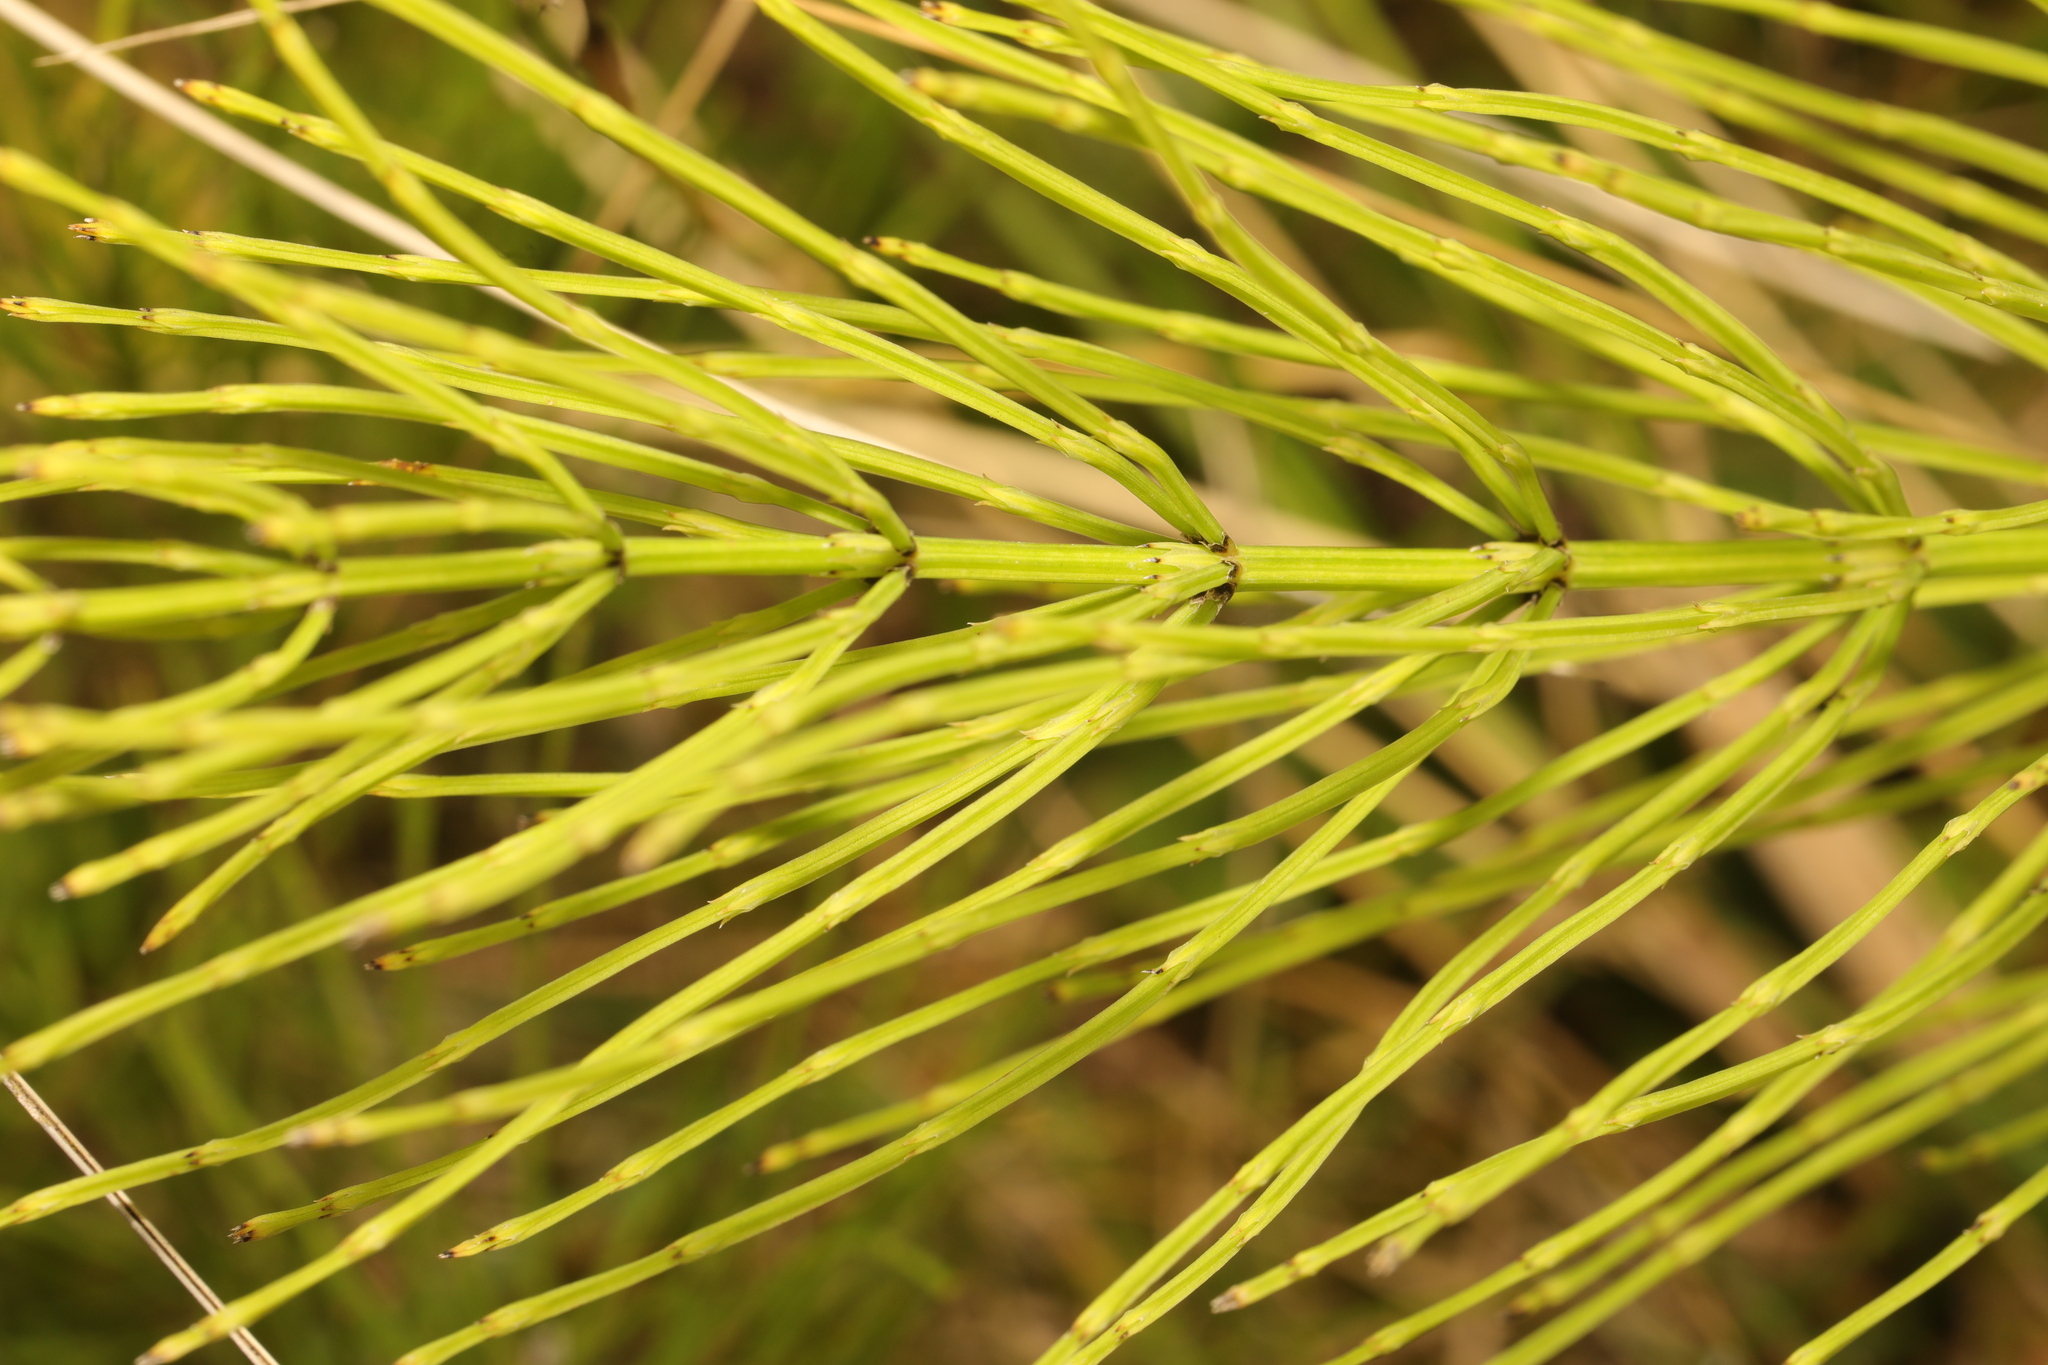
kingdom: Plantae
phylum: Tracheophyta
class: Polypodiopsida
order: Equisetales
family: Equisetaceae
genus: Equisetum
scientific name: Equisetum arvense
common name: Field horsetail
